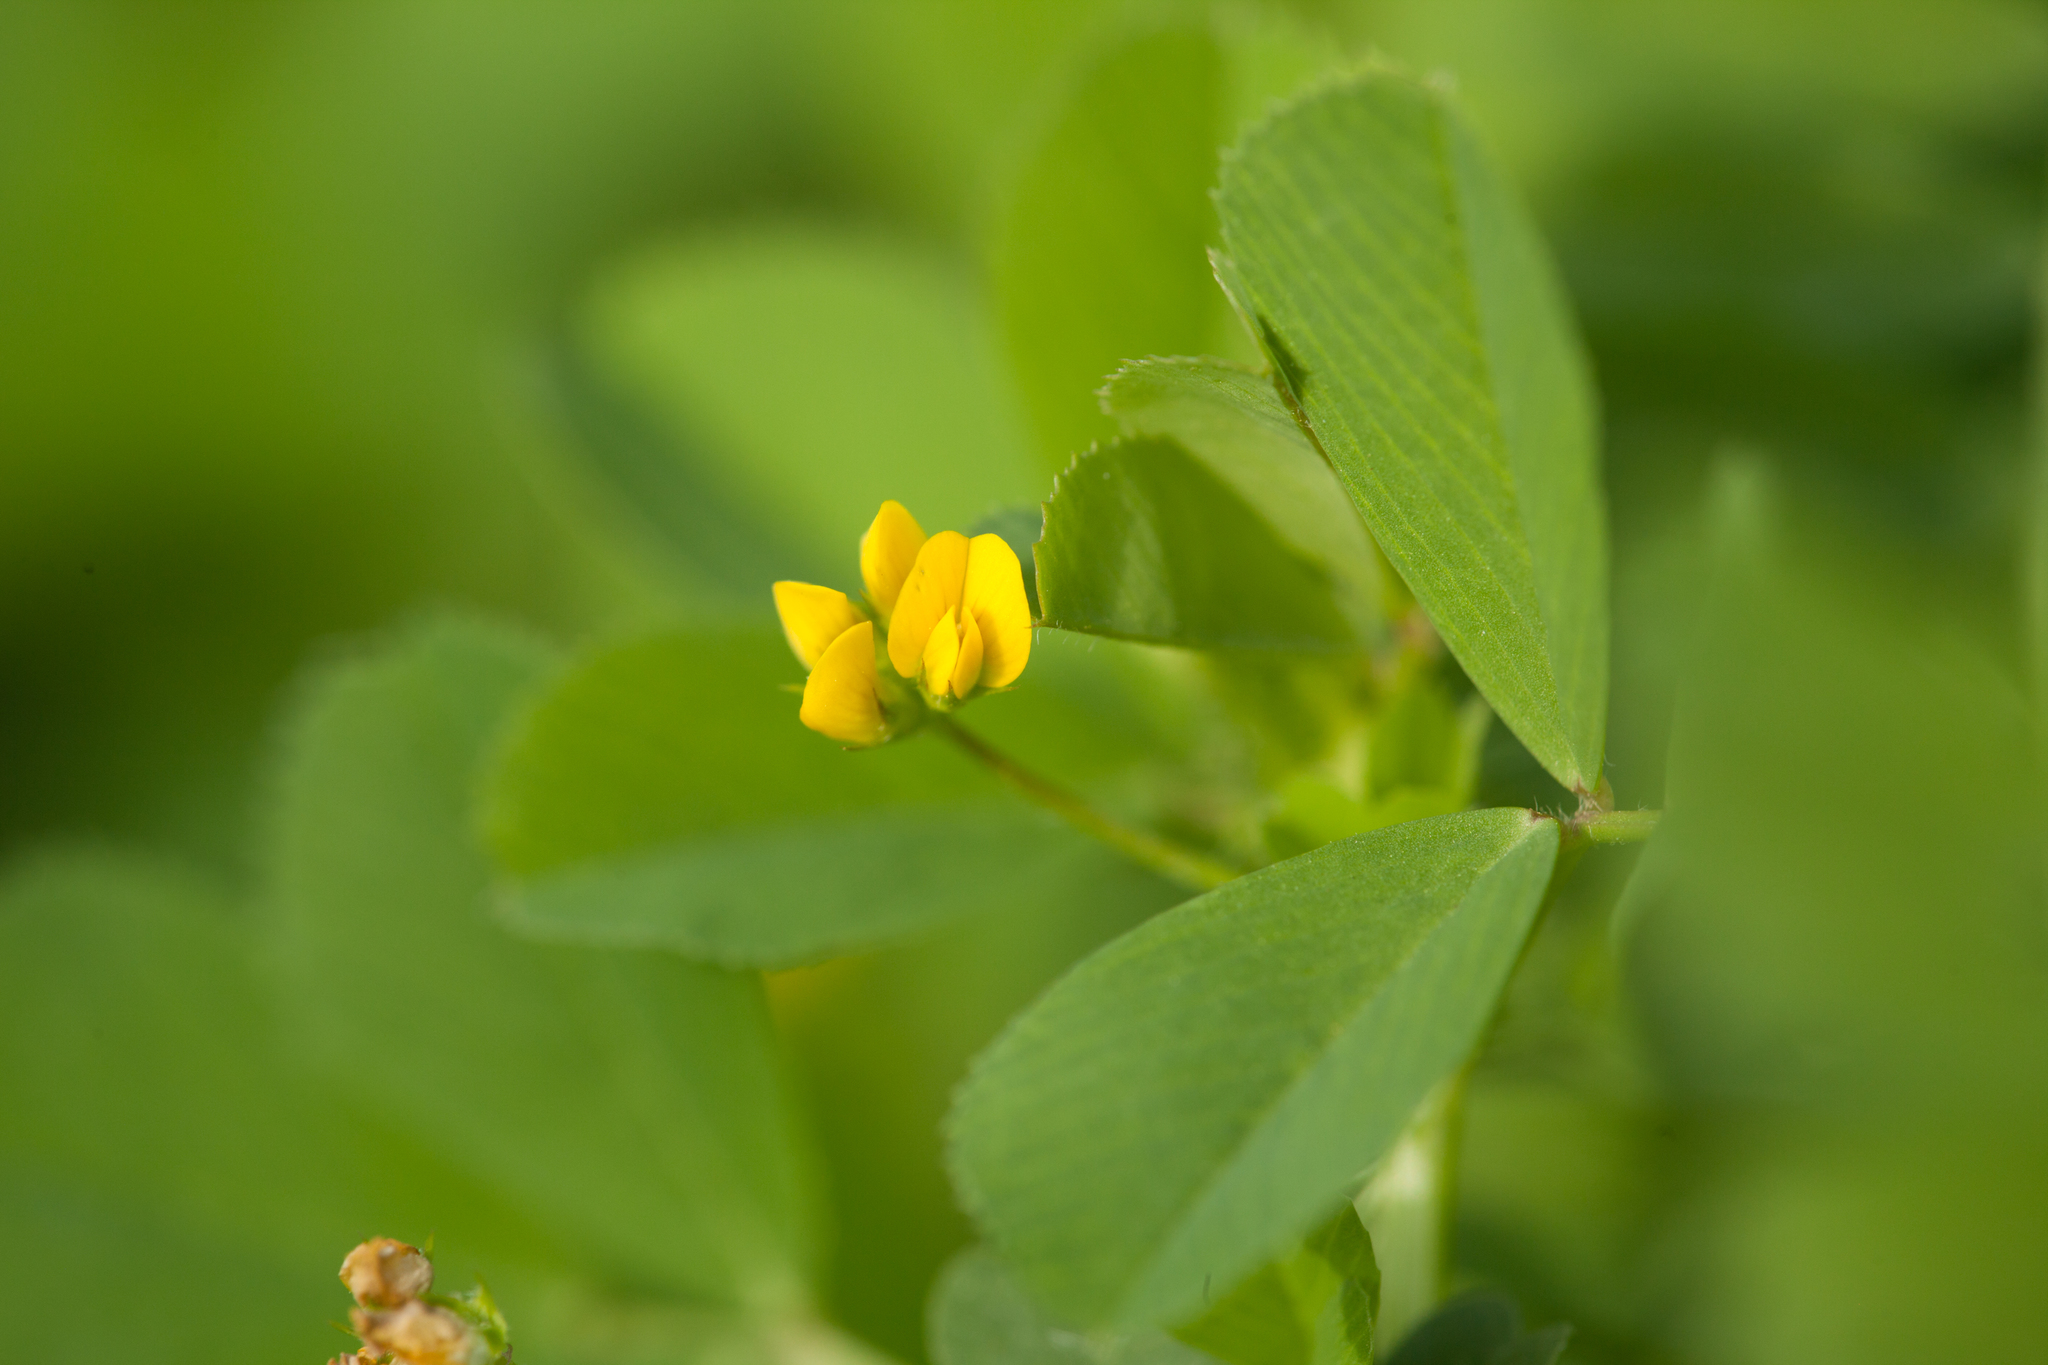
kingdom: Plantae
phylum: Tracheophyta
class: Magnoliopsida
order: Fabales
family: Fabaceae
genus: Medicago
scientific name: Medicago polymorpha
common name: Burclover
